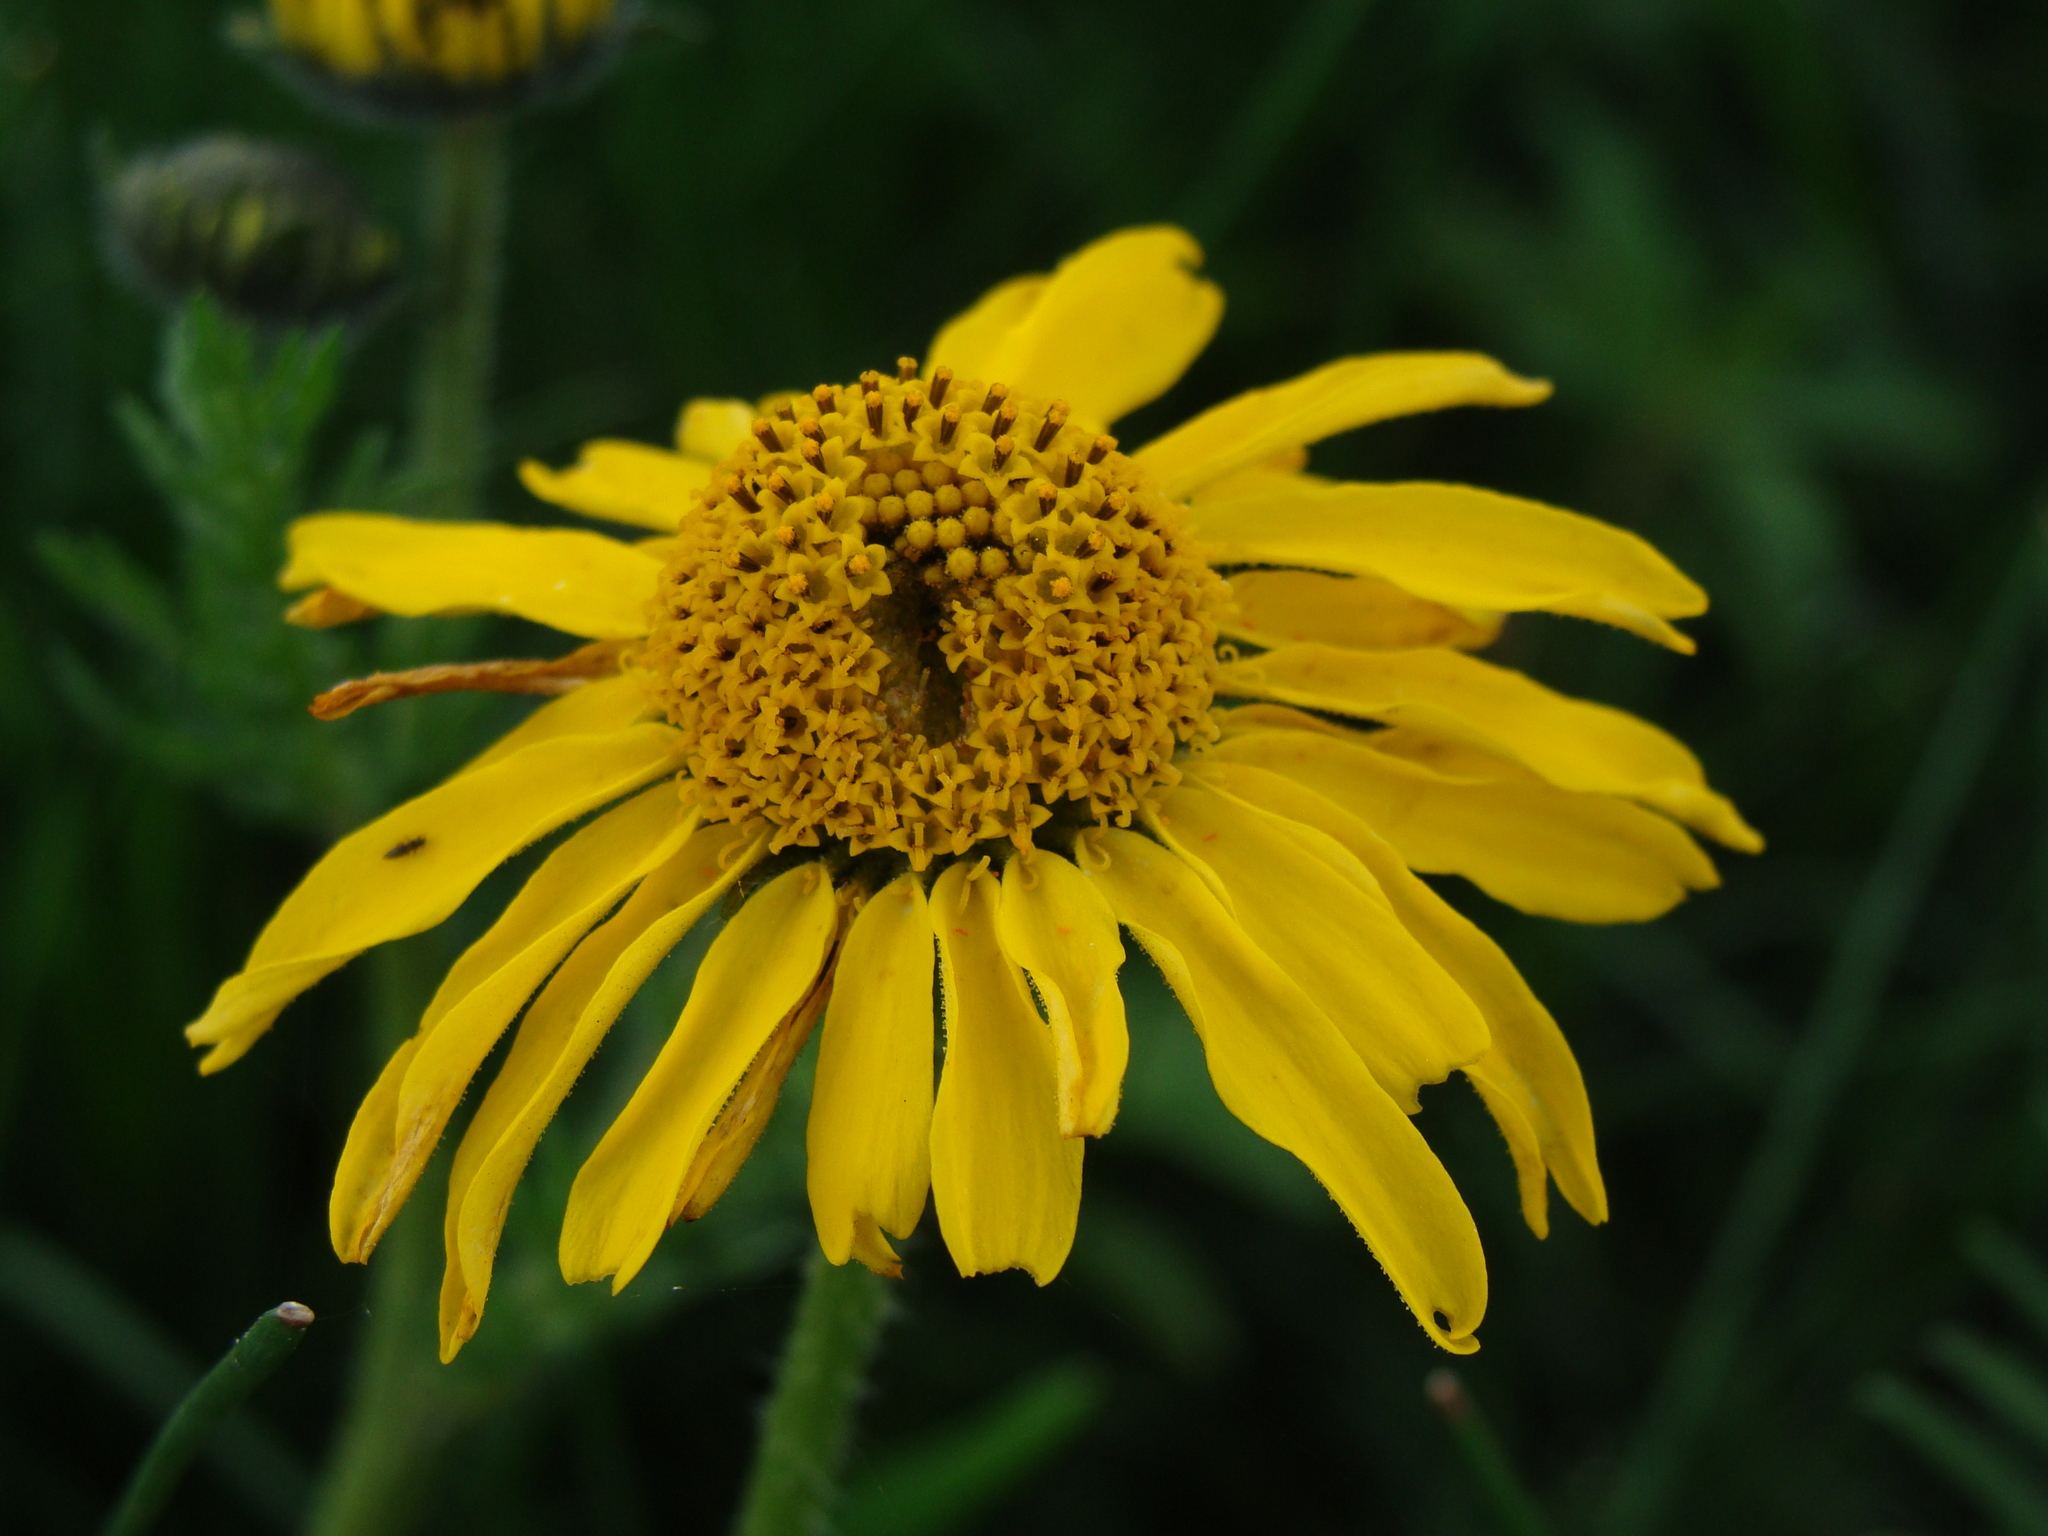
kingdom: Plantae
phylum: Tracheophyta
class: Magnoliopsida
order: Asterales
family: Asteraceae
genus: Hybridella
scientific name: Hybridella globosa
